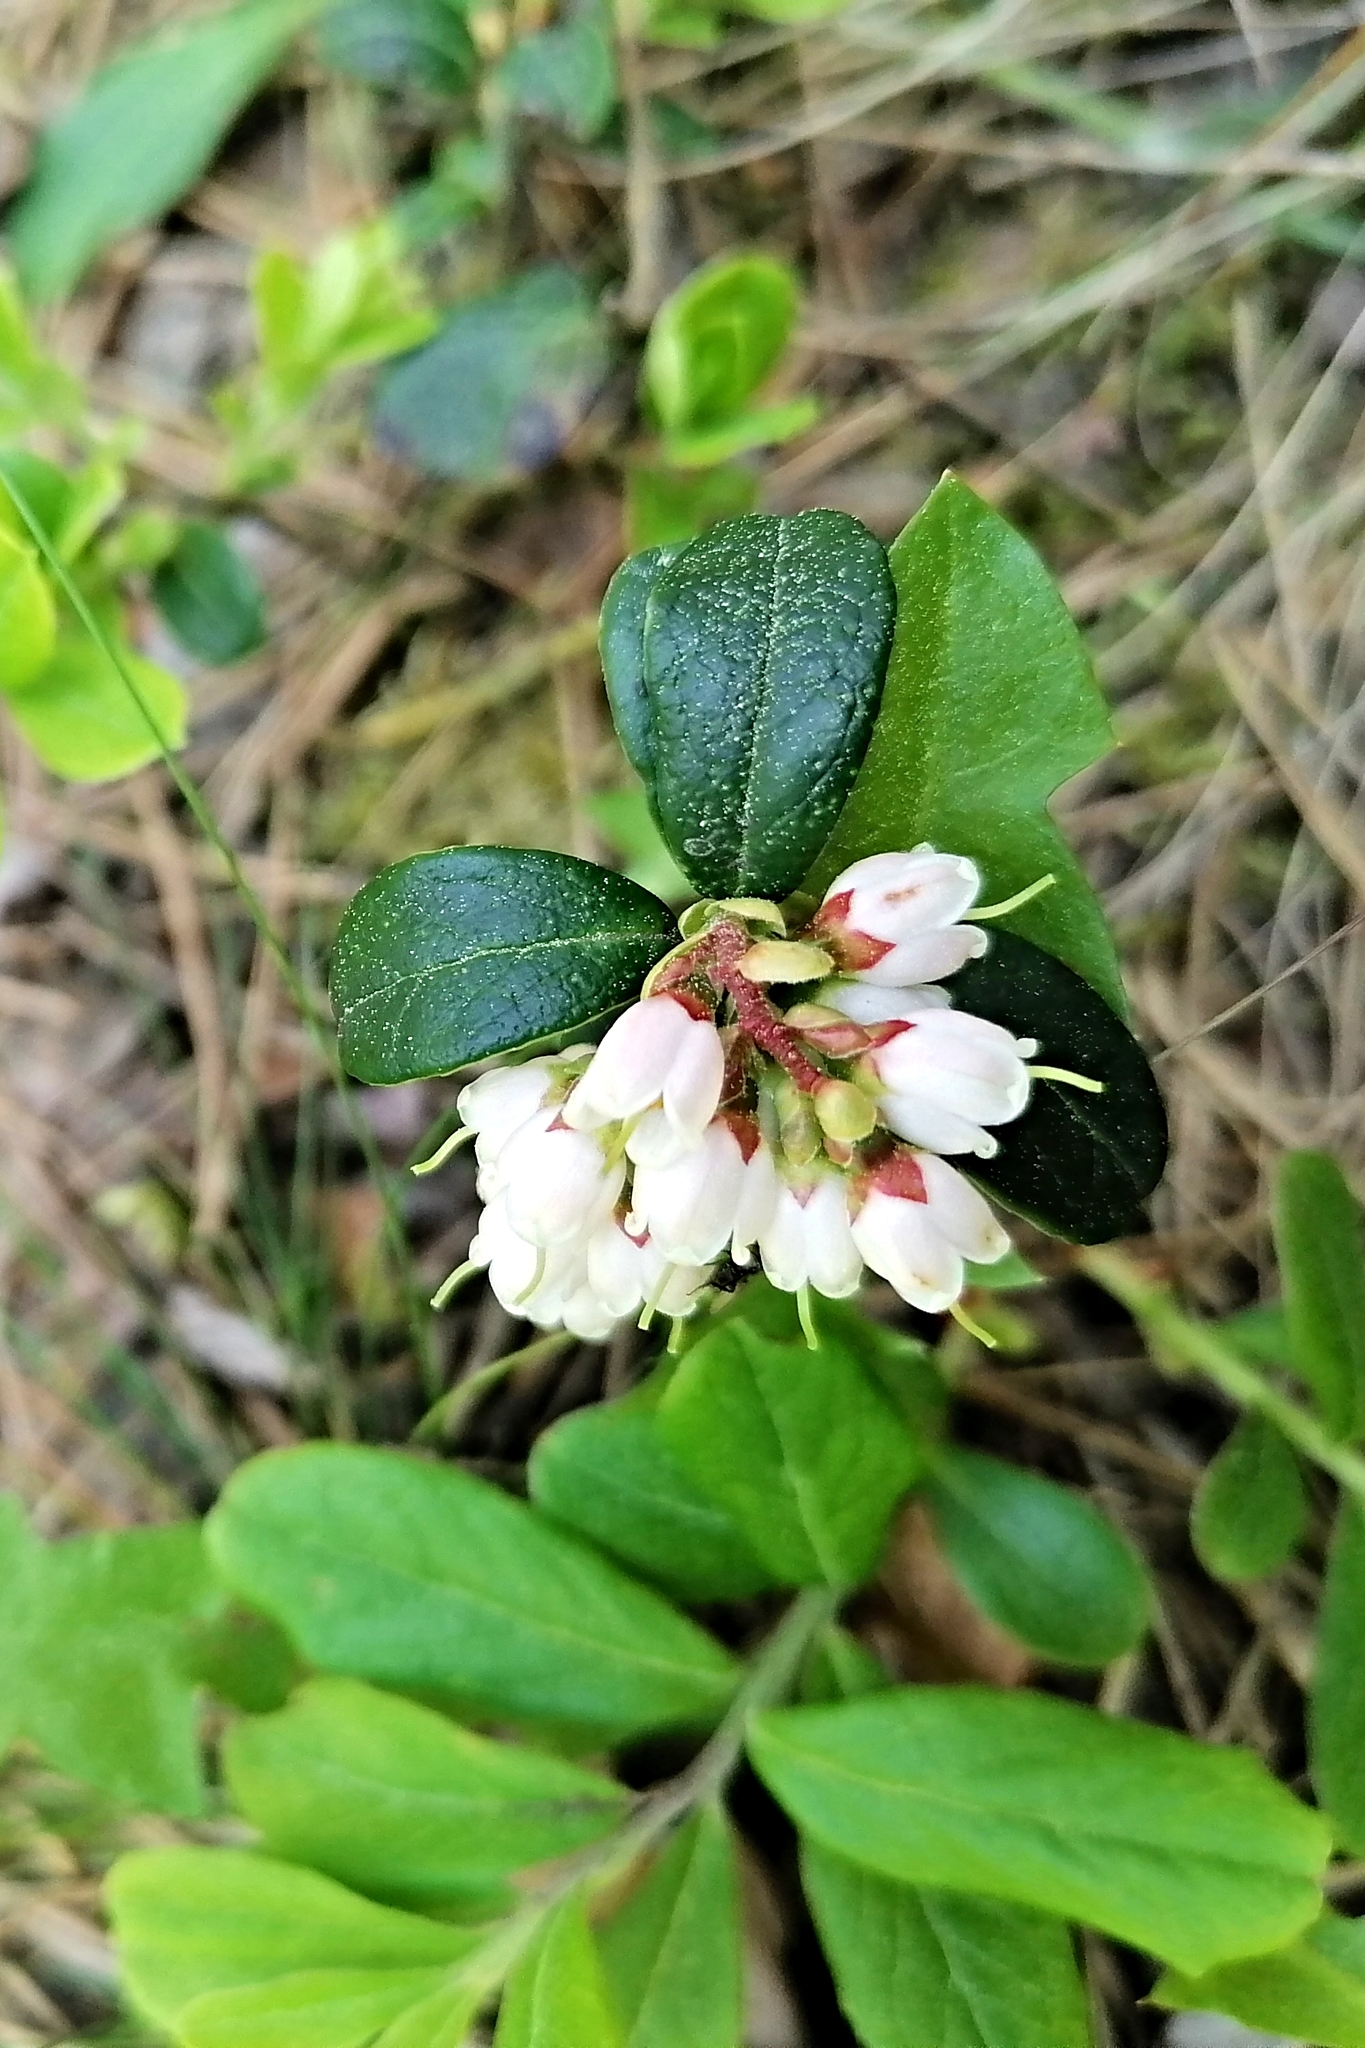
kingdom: Plantae
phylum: Tracheophyta
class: Magnoliopsida
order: Ericales
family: Ericaceae
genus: Vaccinium
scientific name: Vaccinium vitis-idaea
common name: Cowberry
